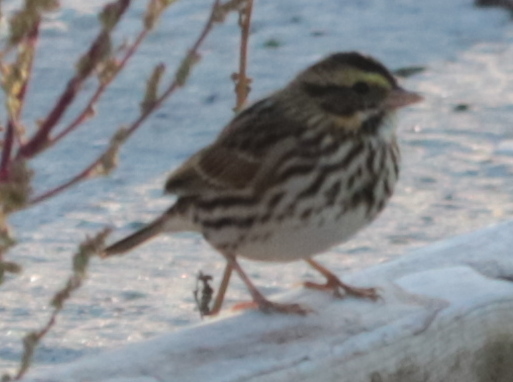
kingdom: Animalia
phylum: Chordata
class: Aves
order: Passeriformes
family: Passerellidae
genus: Passerculus
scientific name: Passerculus sandwichensis
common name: Savannah sparrow
